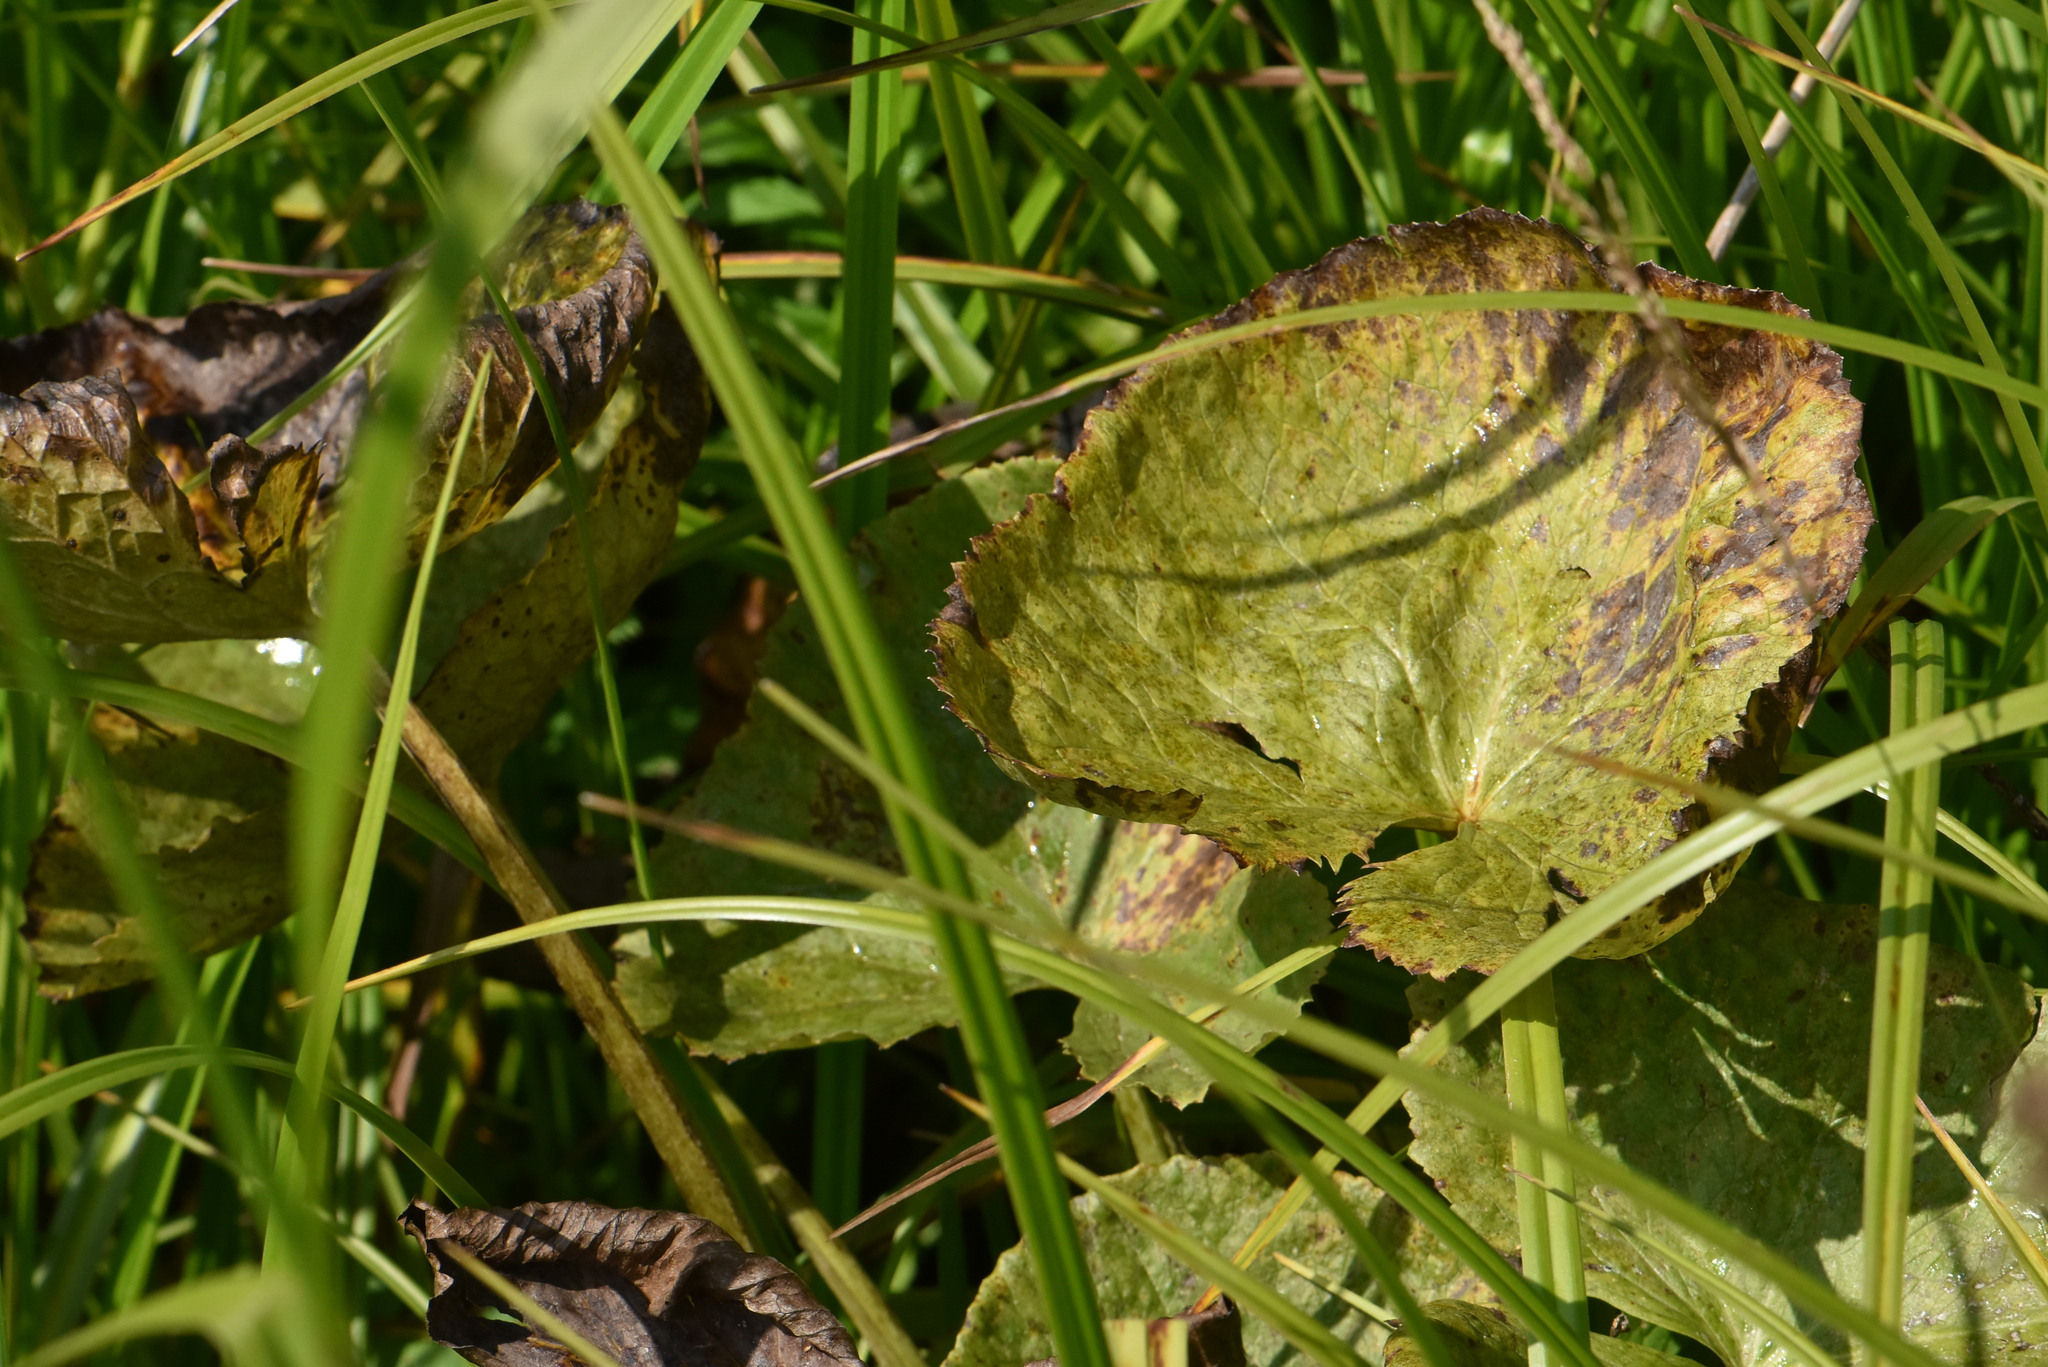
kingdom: Plantae
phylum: Tracheophyta
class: Magnoliopsida
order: Ranunculales
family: Ranunculaceae
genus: Caltha
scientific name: Caltha palustris
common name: Marsh marigold
